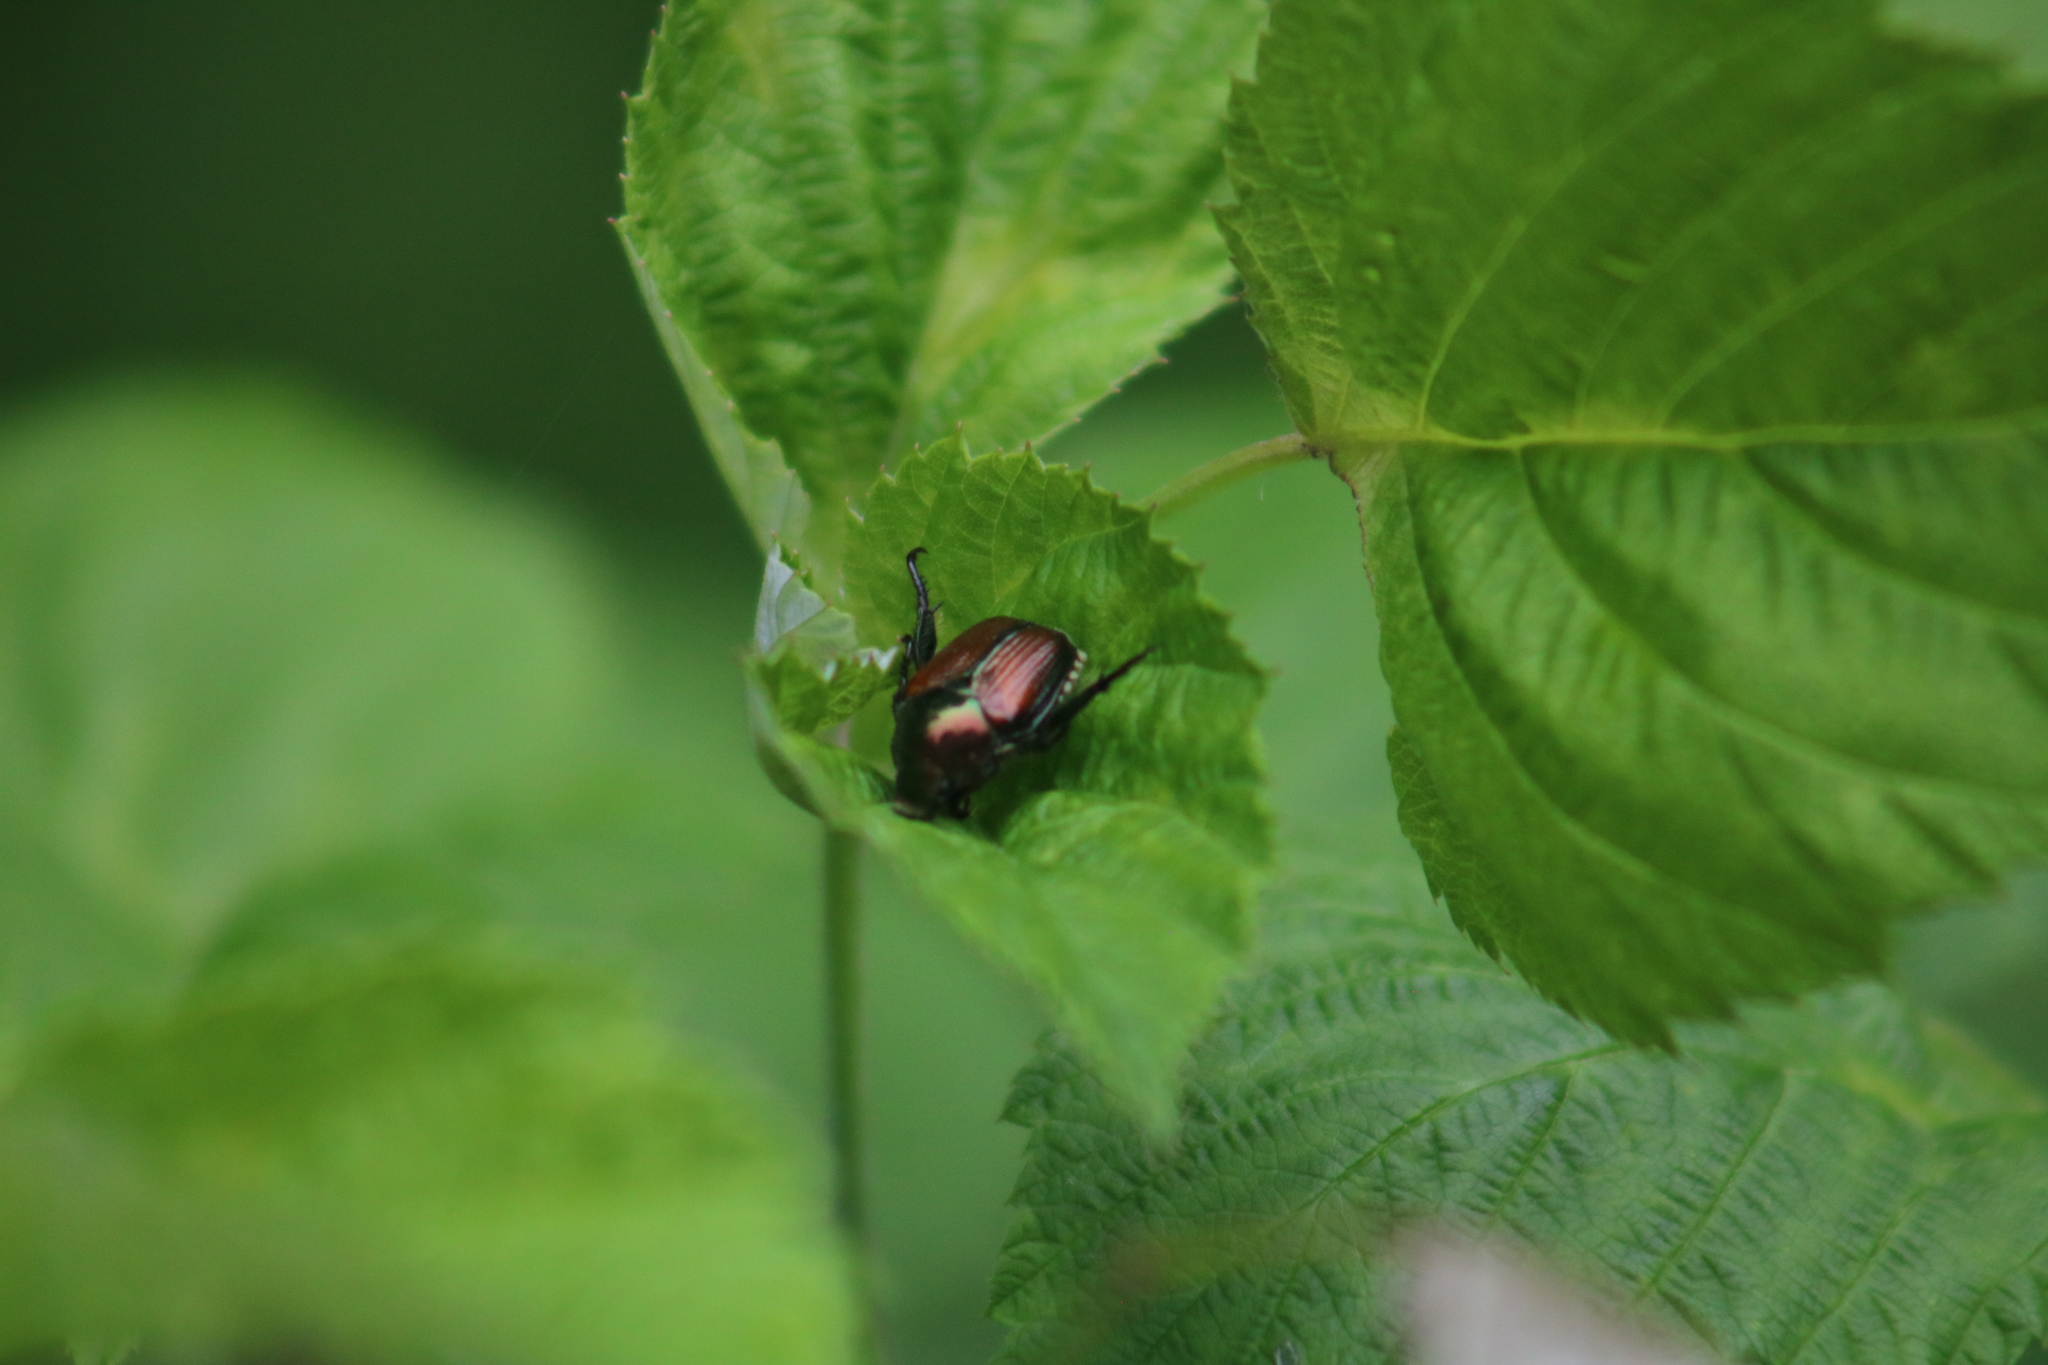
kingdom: Animalia
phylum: Arthropoda
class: Insecta
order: Coleoptera
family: Scarabaeidae
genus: Popillia
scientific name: Popillia japonica
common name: Japanese beetle
